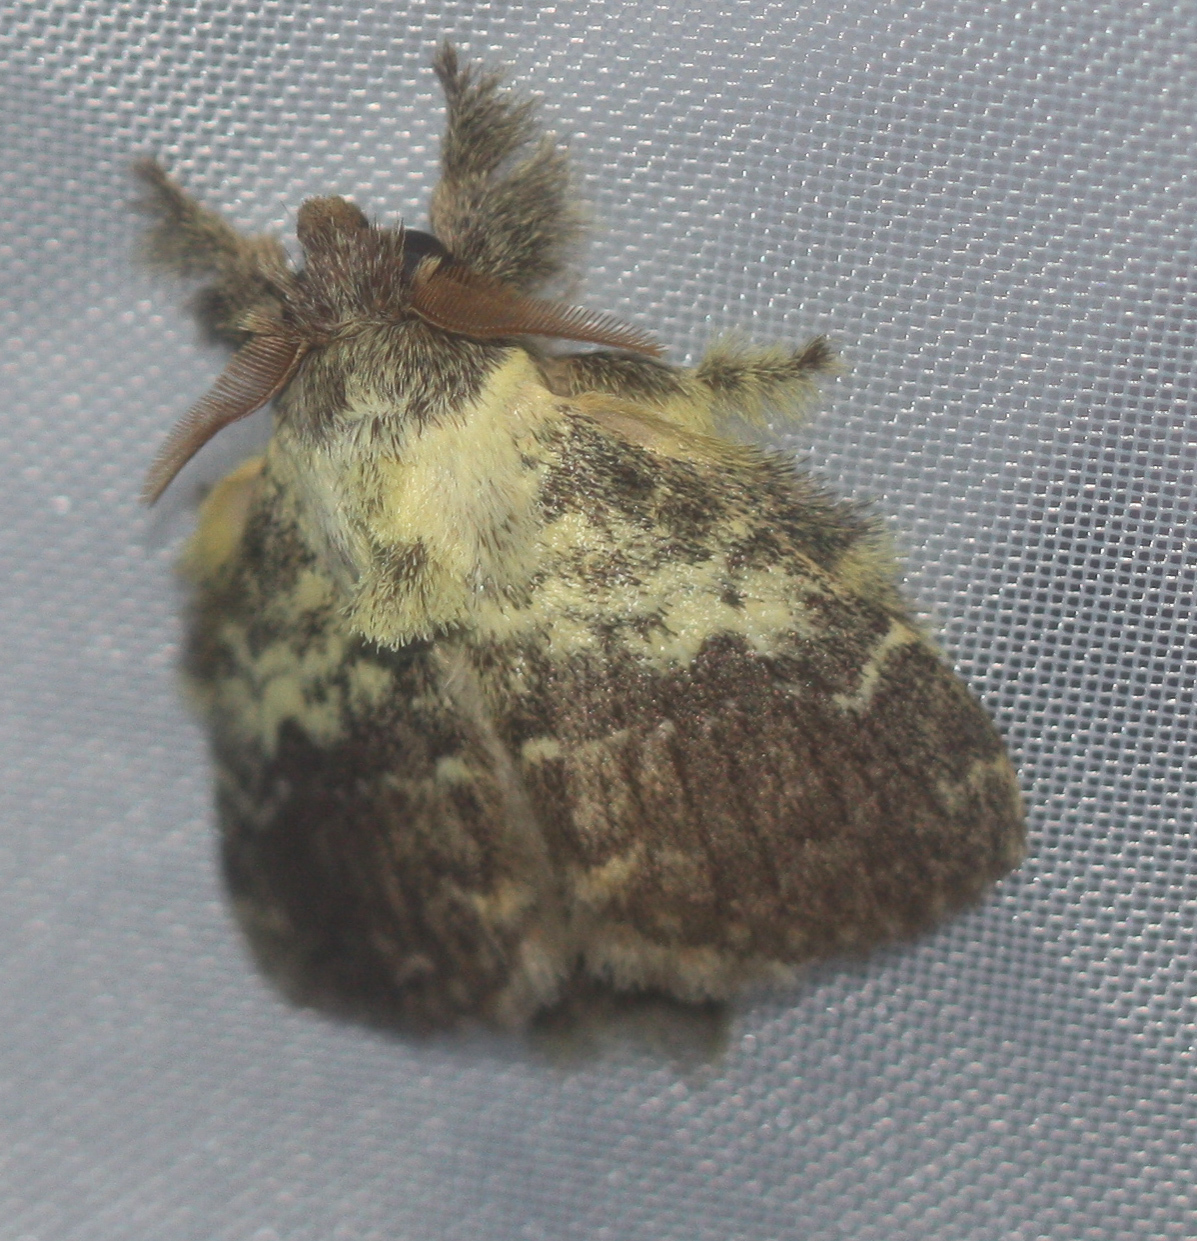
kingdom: Animalia
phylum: Arthropoda
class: Insecta
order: Lepidoptera
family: Lasiocampidae
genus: Euglyphis
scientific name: Euglyphis primola
